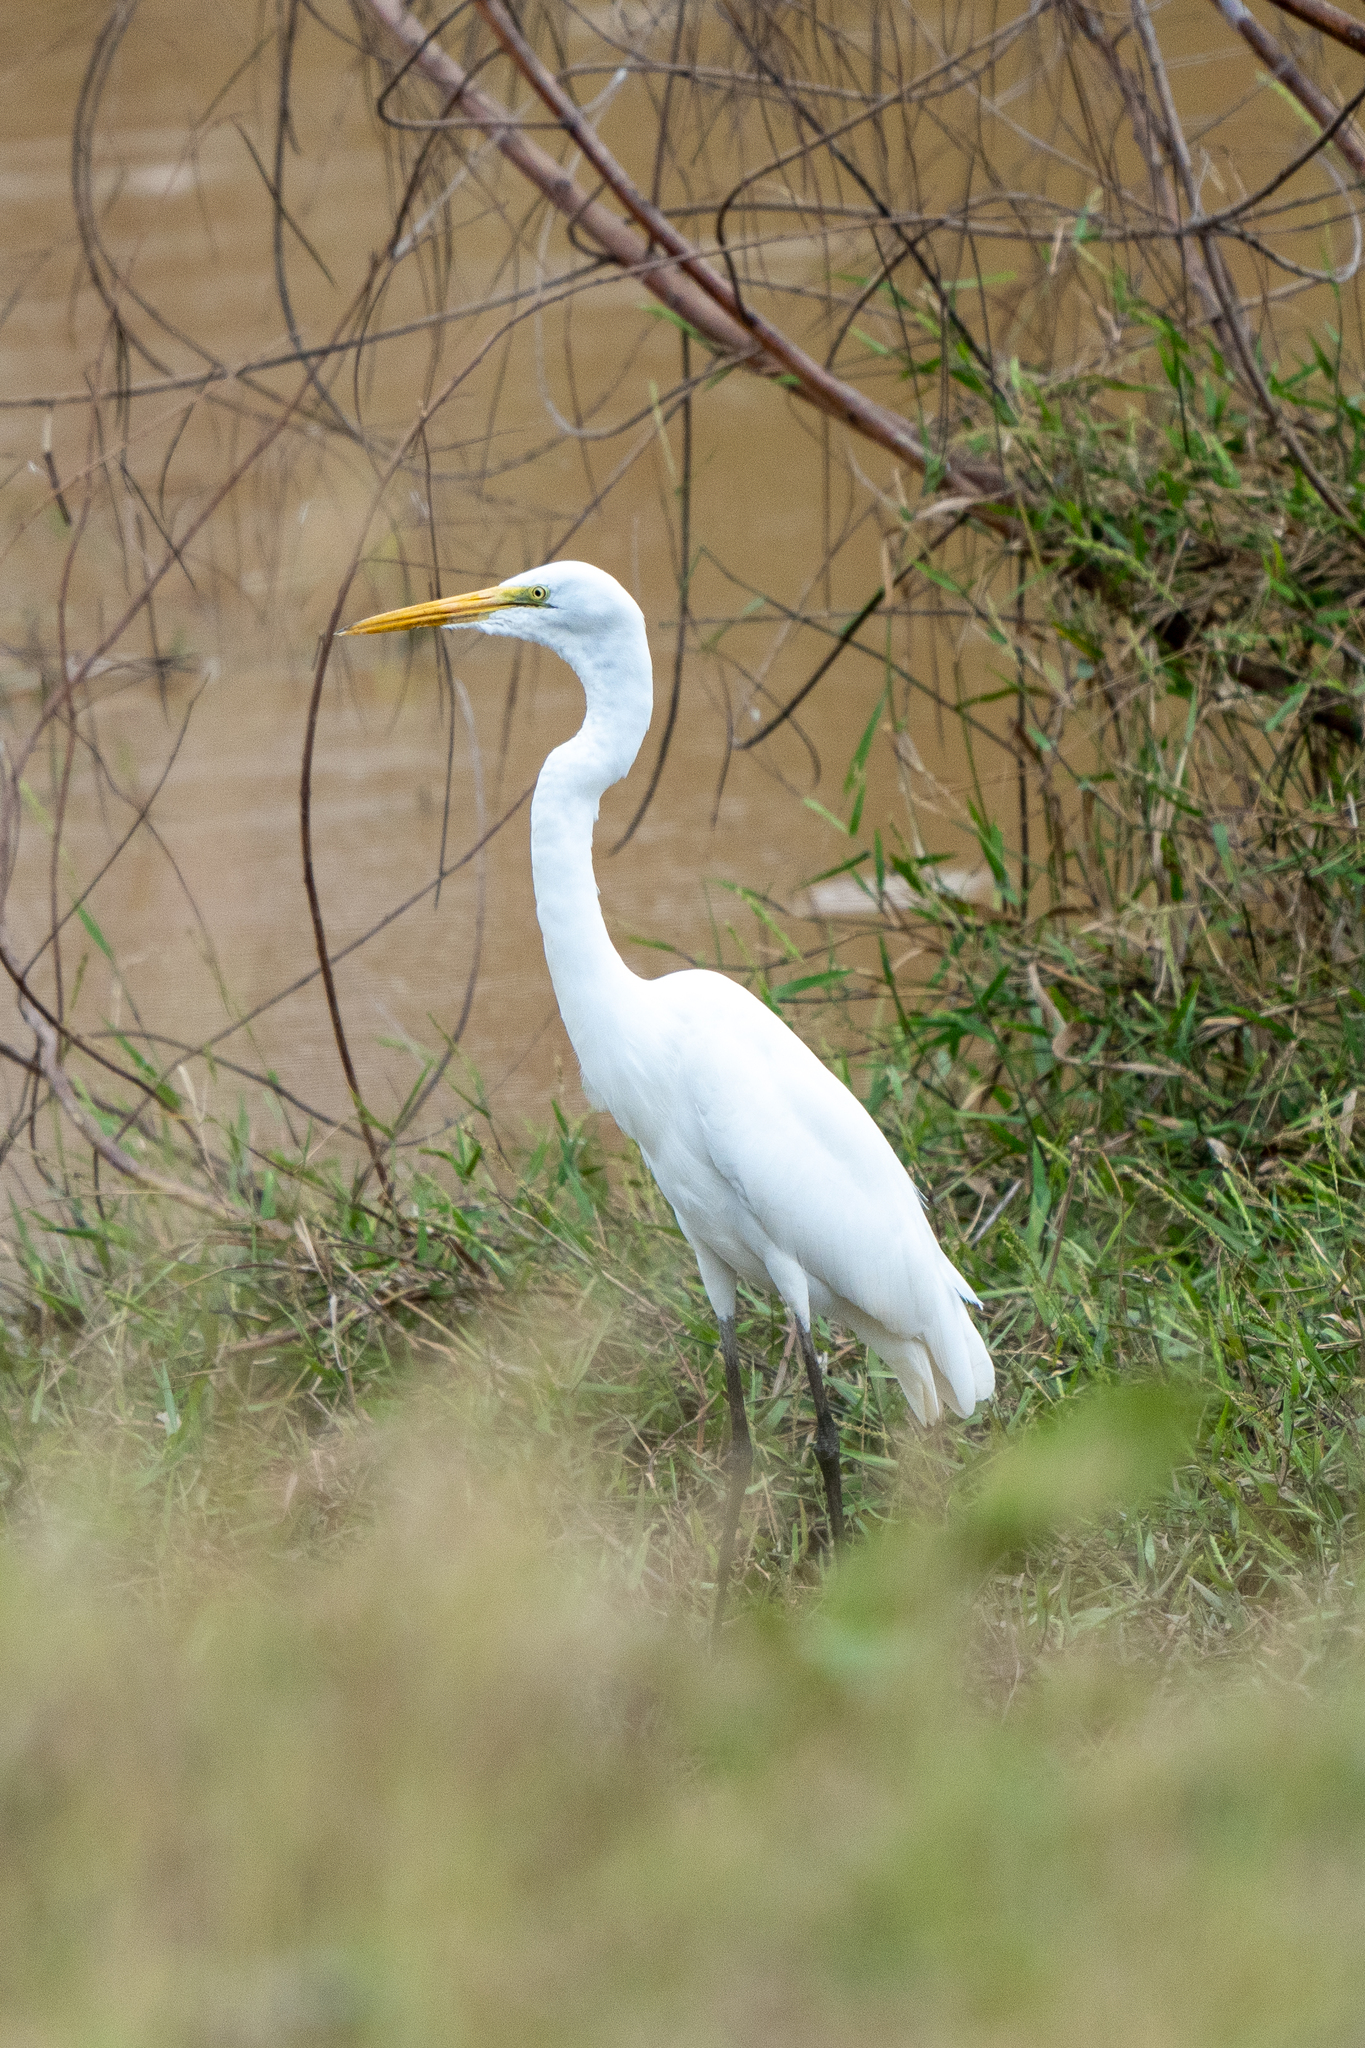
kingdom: Animalia
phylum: Chordata
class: Aves
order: Pelecaniformes
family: Ardeidae
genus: Ardea
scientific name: Ardea alba
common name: Great egret
